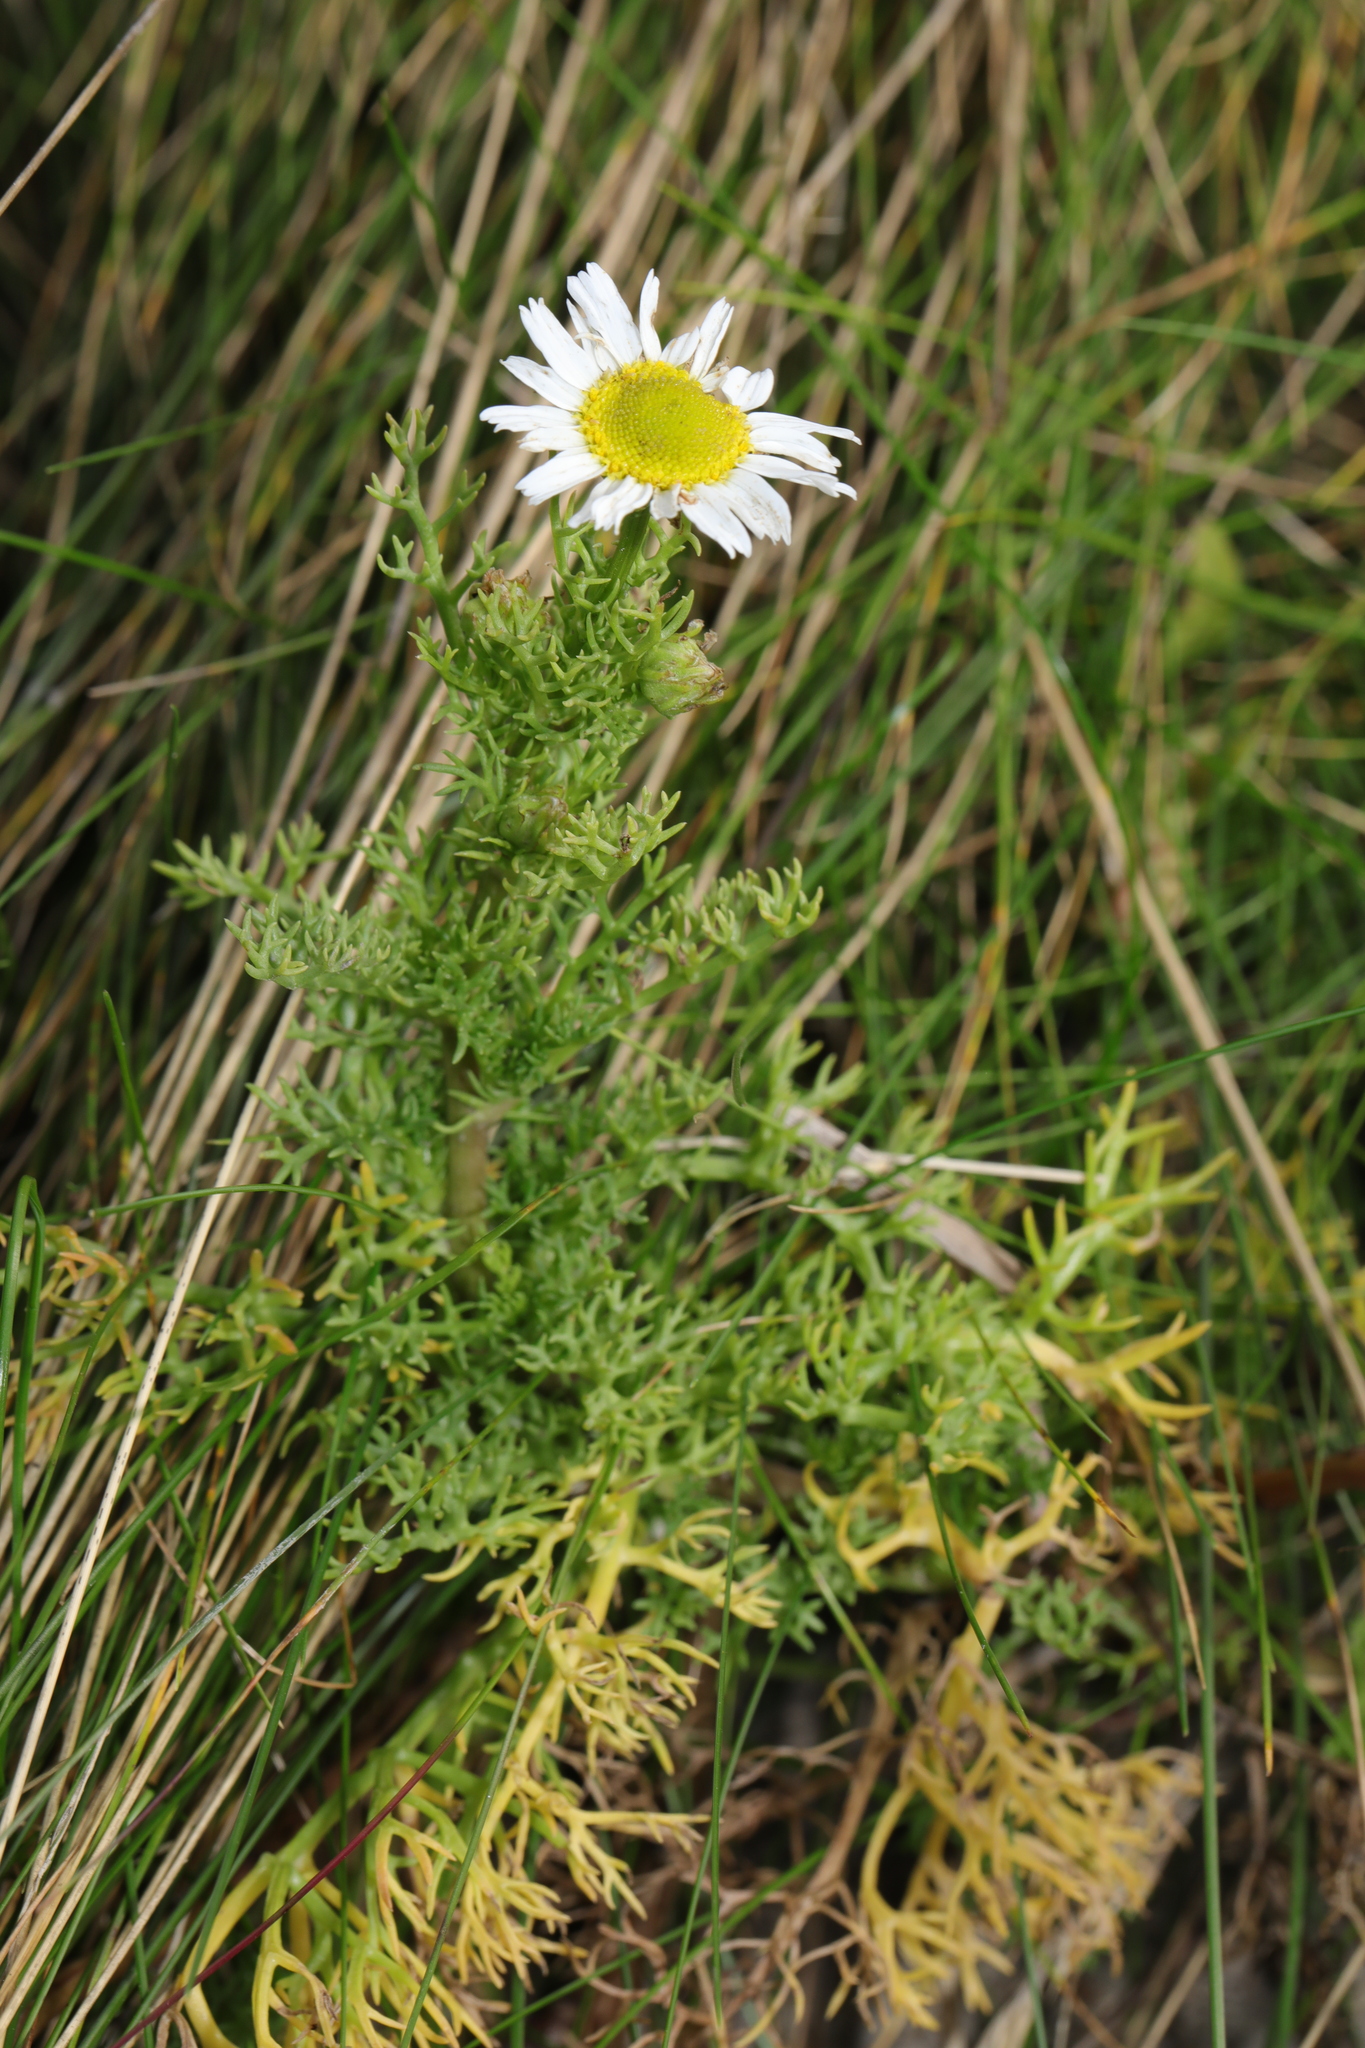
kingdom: Plantae
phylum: Tracheophyta
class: Magnoliopsida
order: Asterales
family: Asteraceae
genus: Tripleurospermum
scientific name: Tripleurospermum maritimum
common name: Sea mayweed
